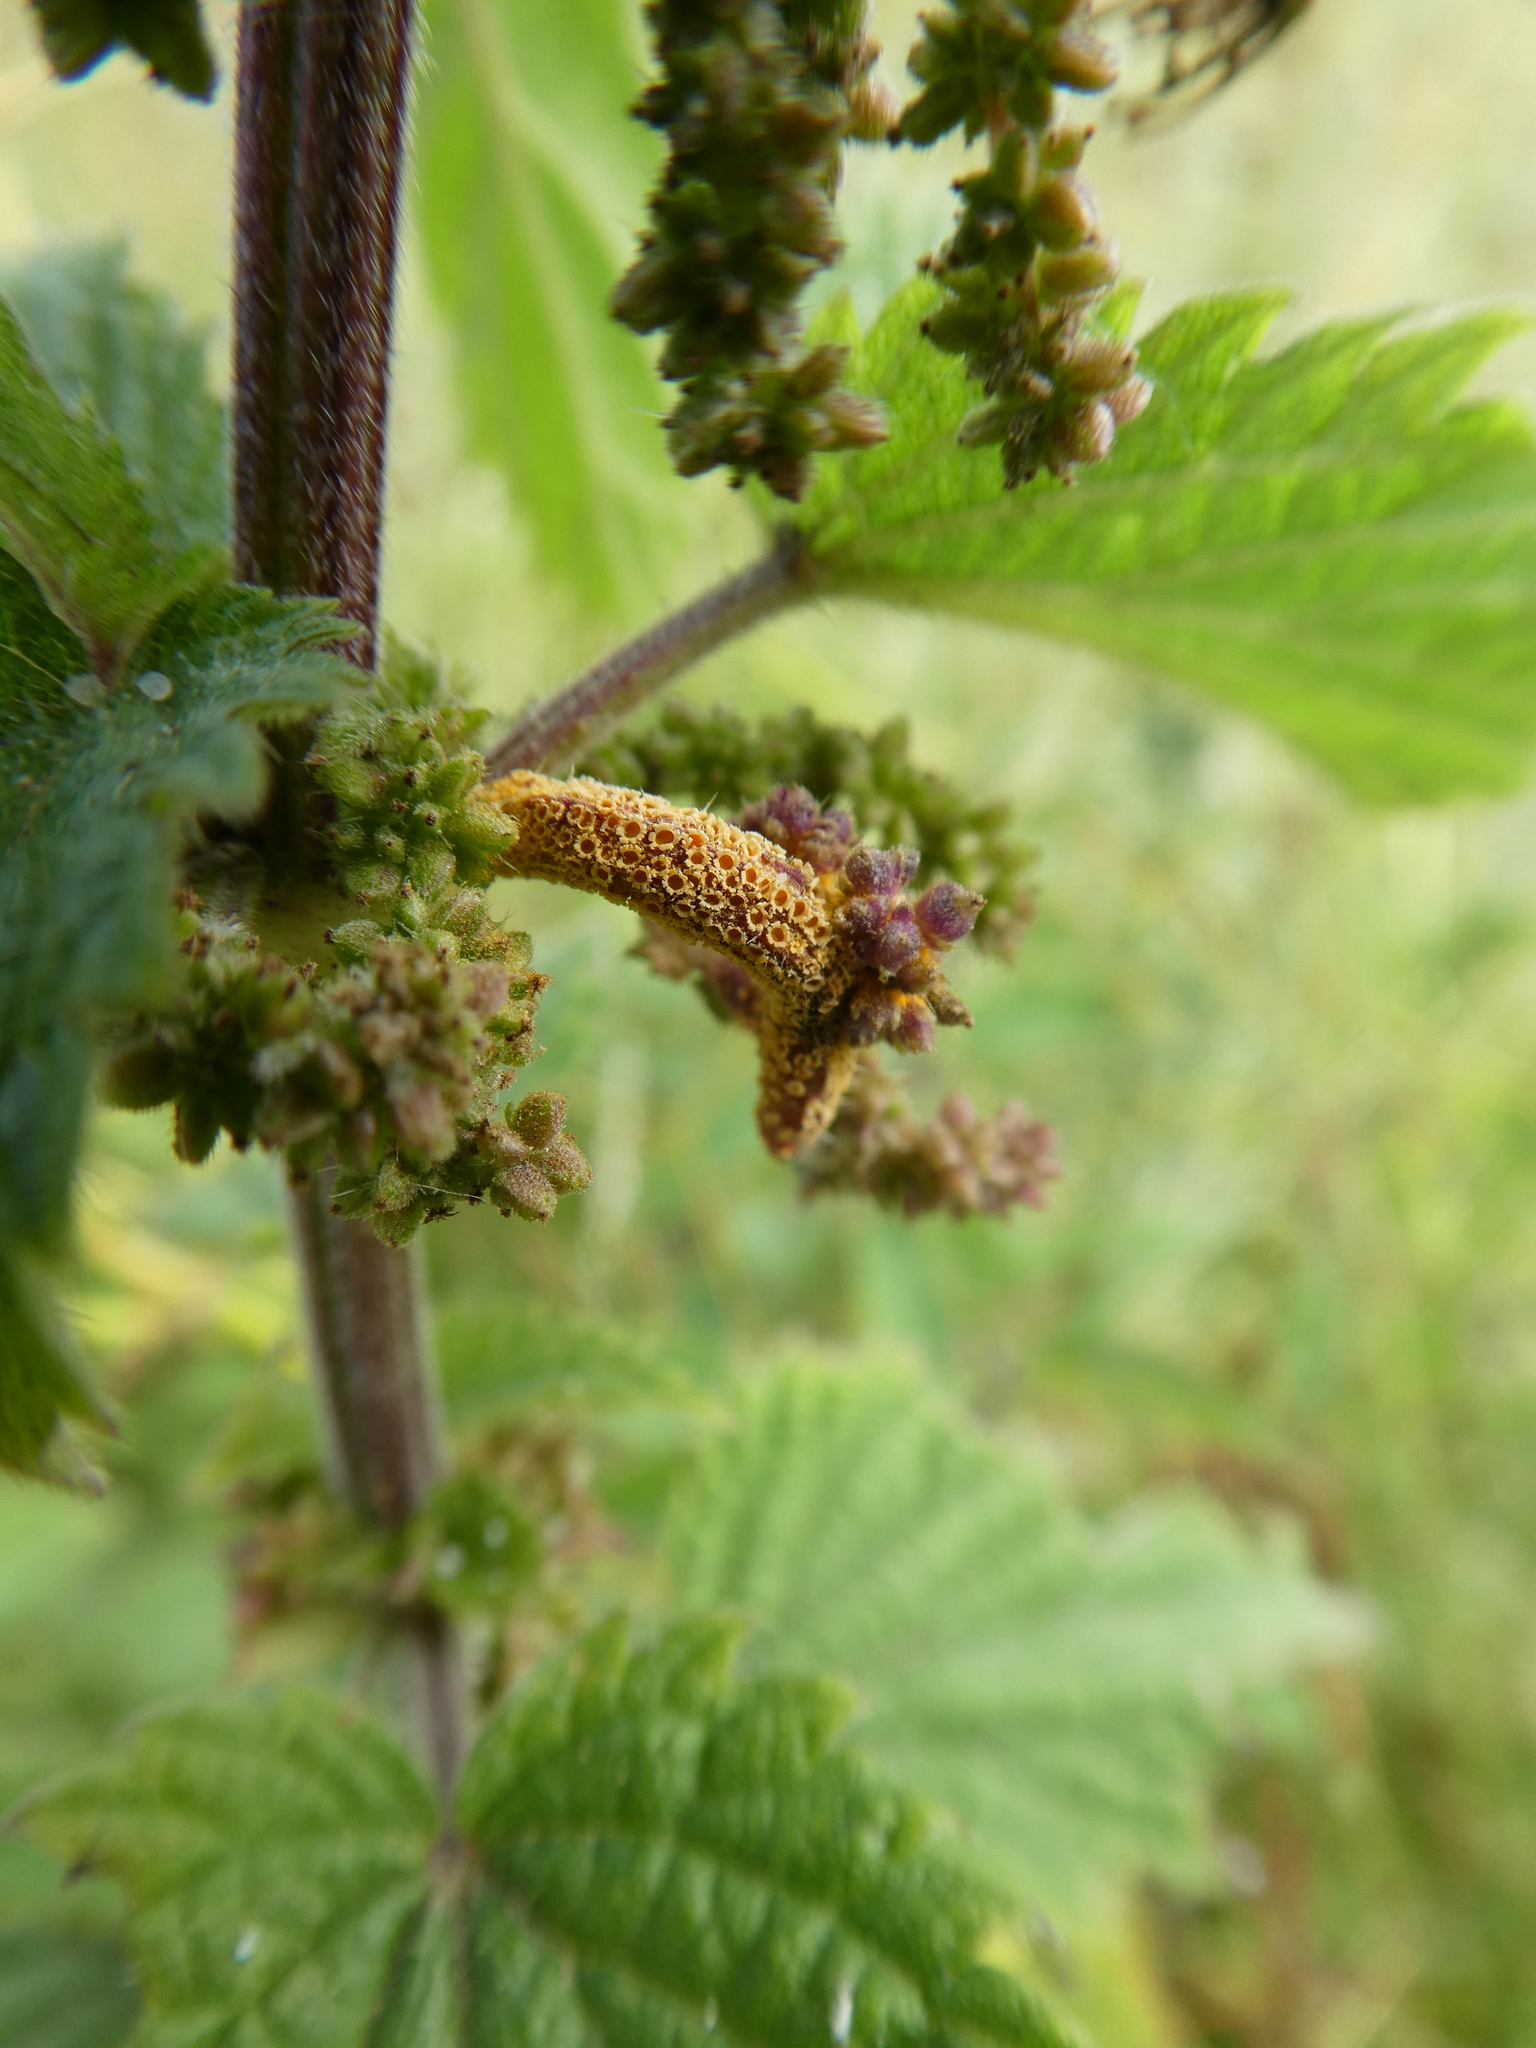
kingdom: Fungi
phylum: Basidiomycota
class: Pucciniomycetes
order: Pucciniales
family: Pucciniaceae
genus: Puccinia
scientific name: Puccinia urticata
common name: Nettle clustercup rust fungus
